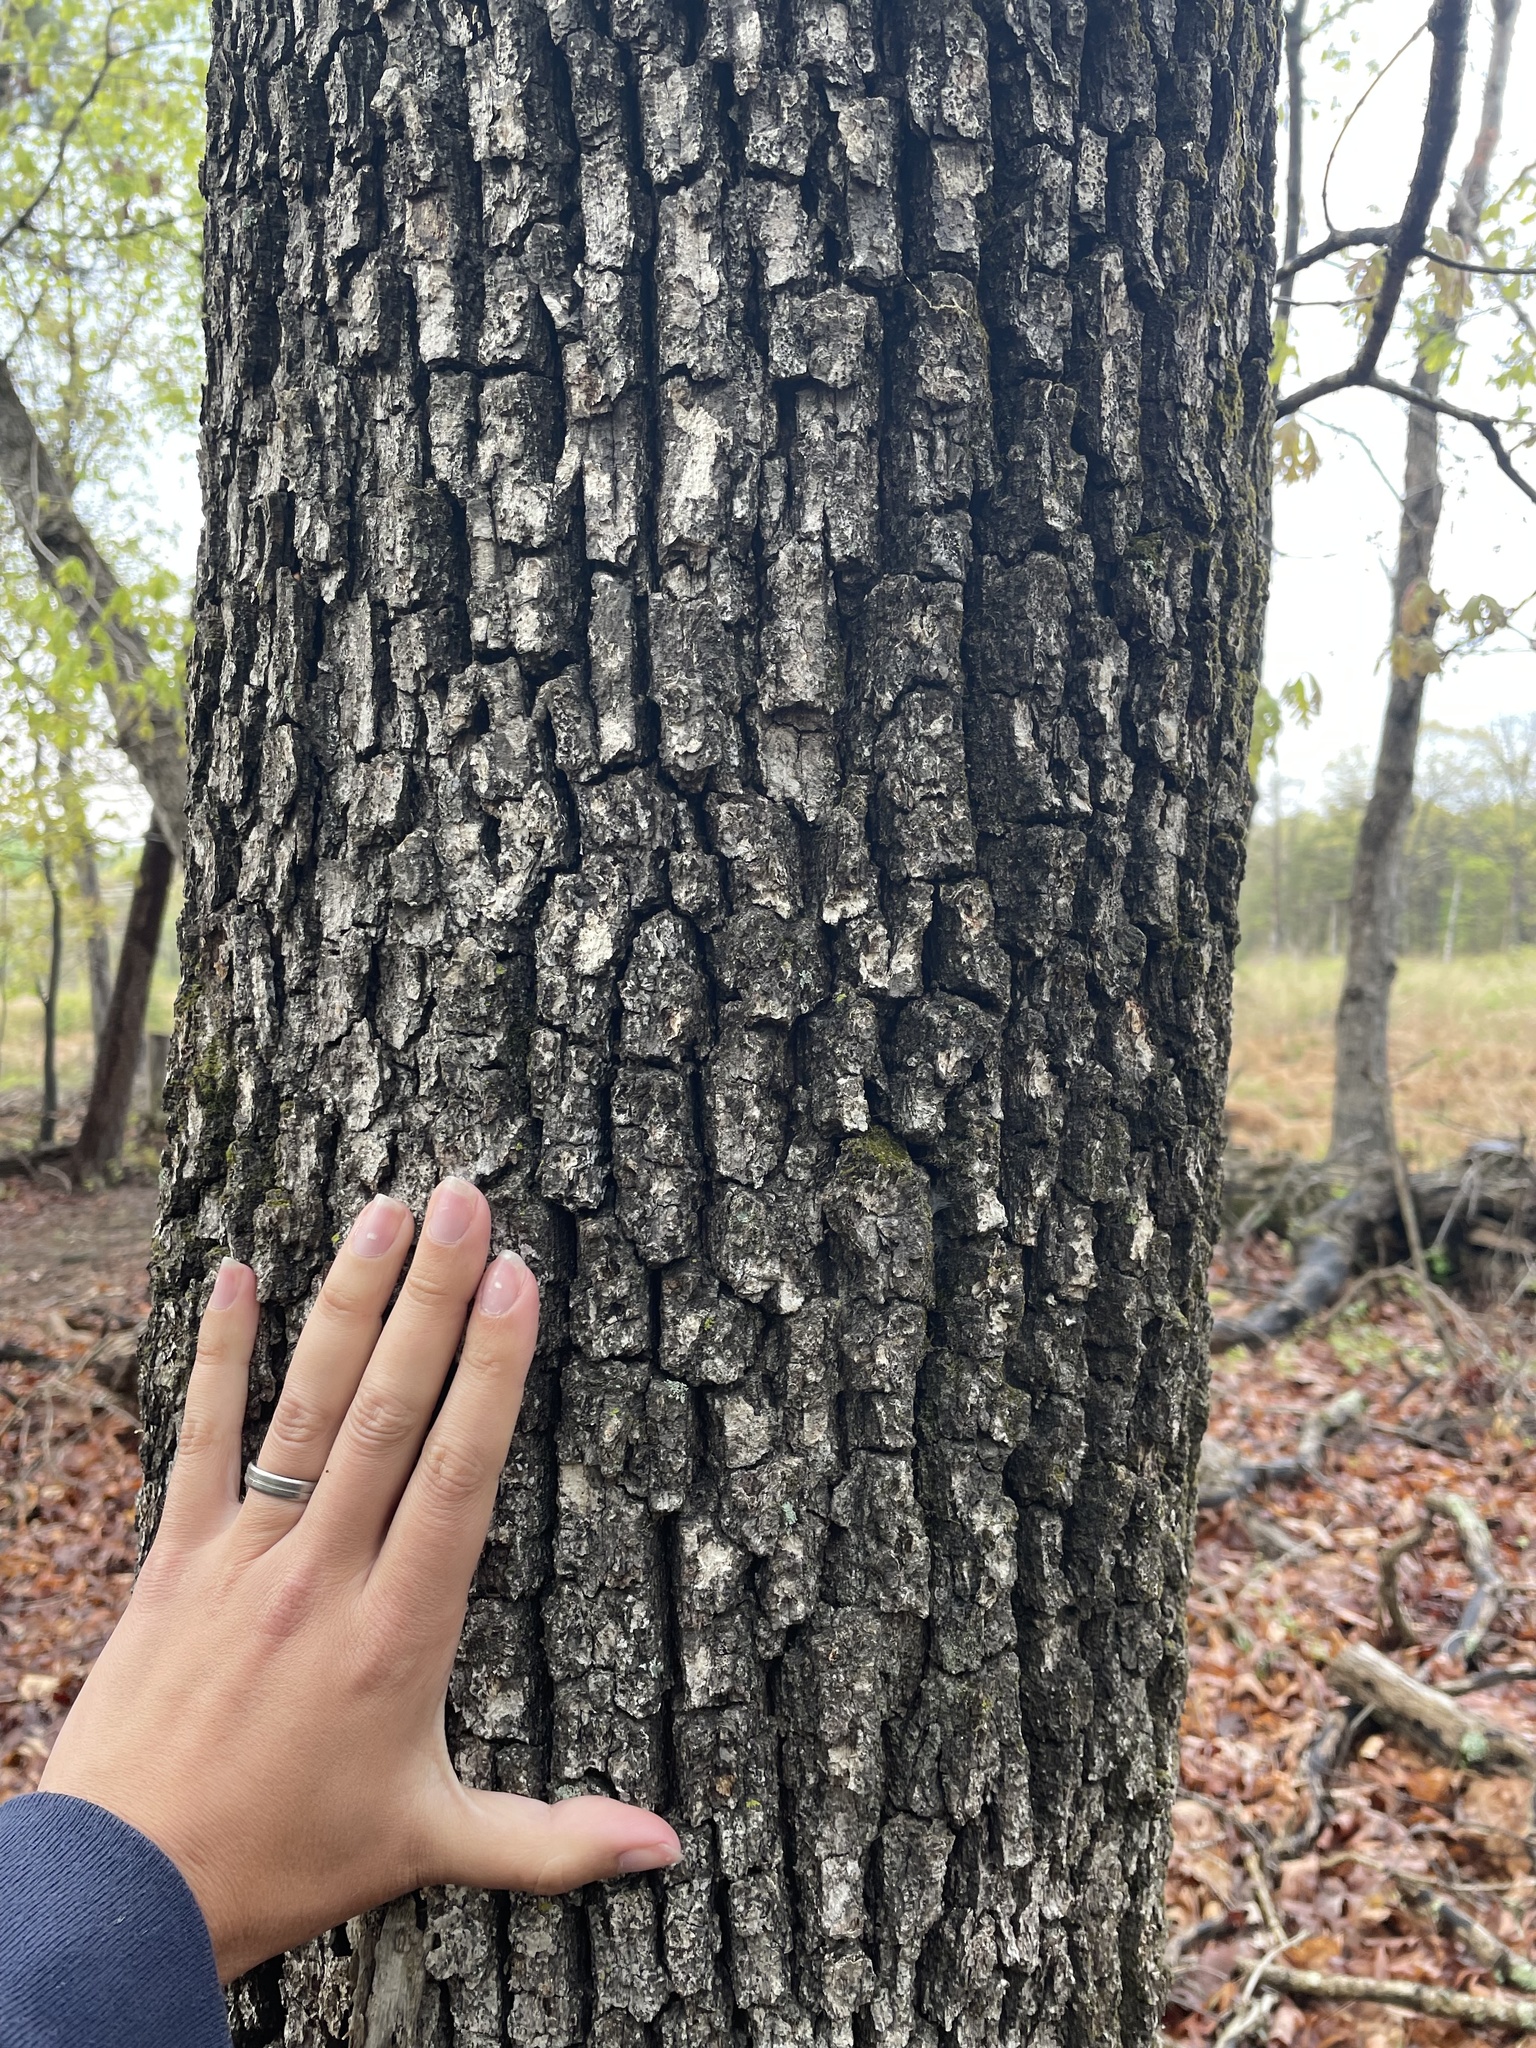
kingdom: Plantae
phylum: Tracheophyta
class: Magnoliopsida
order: Fagales
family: Fagaceae
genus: Quercus
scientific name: Quercus alba
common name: White oak
